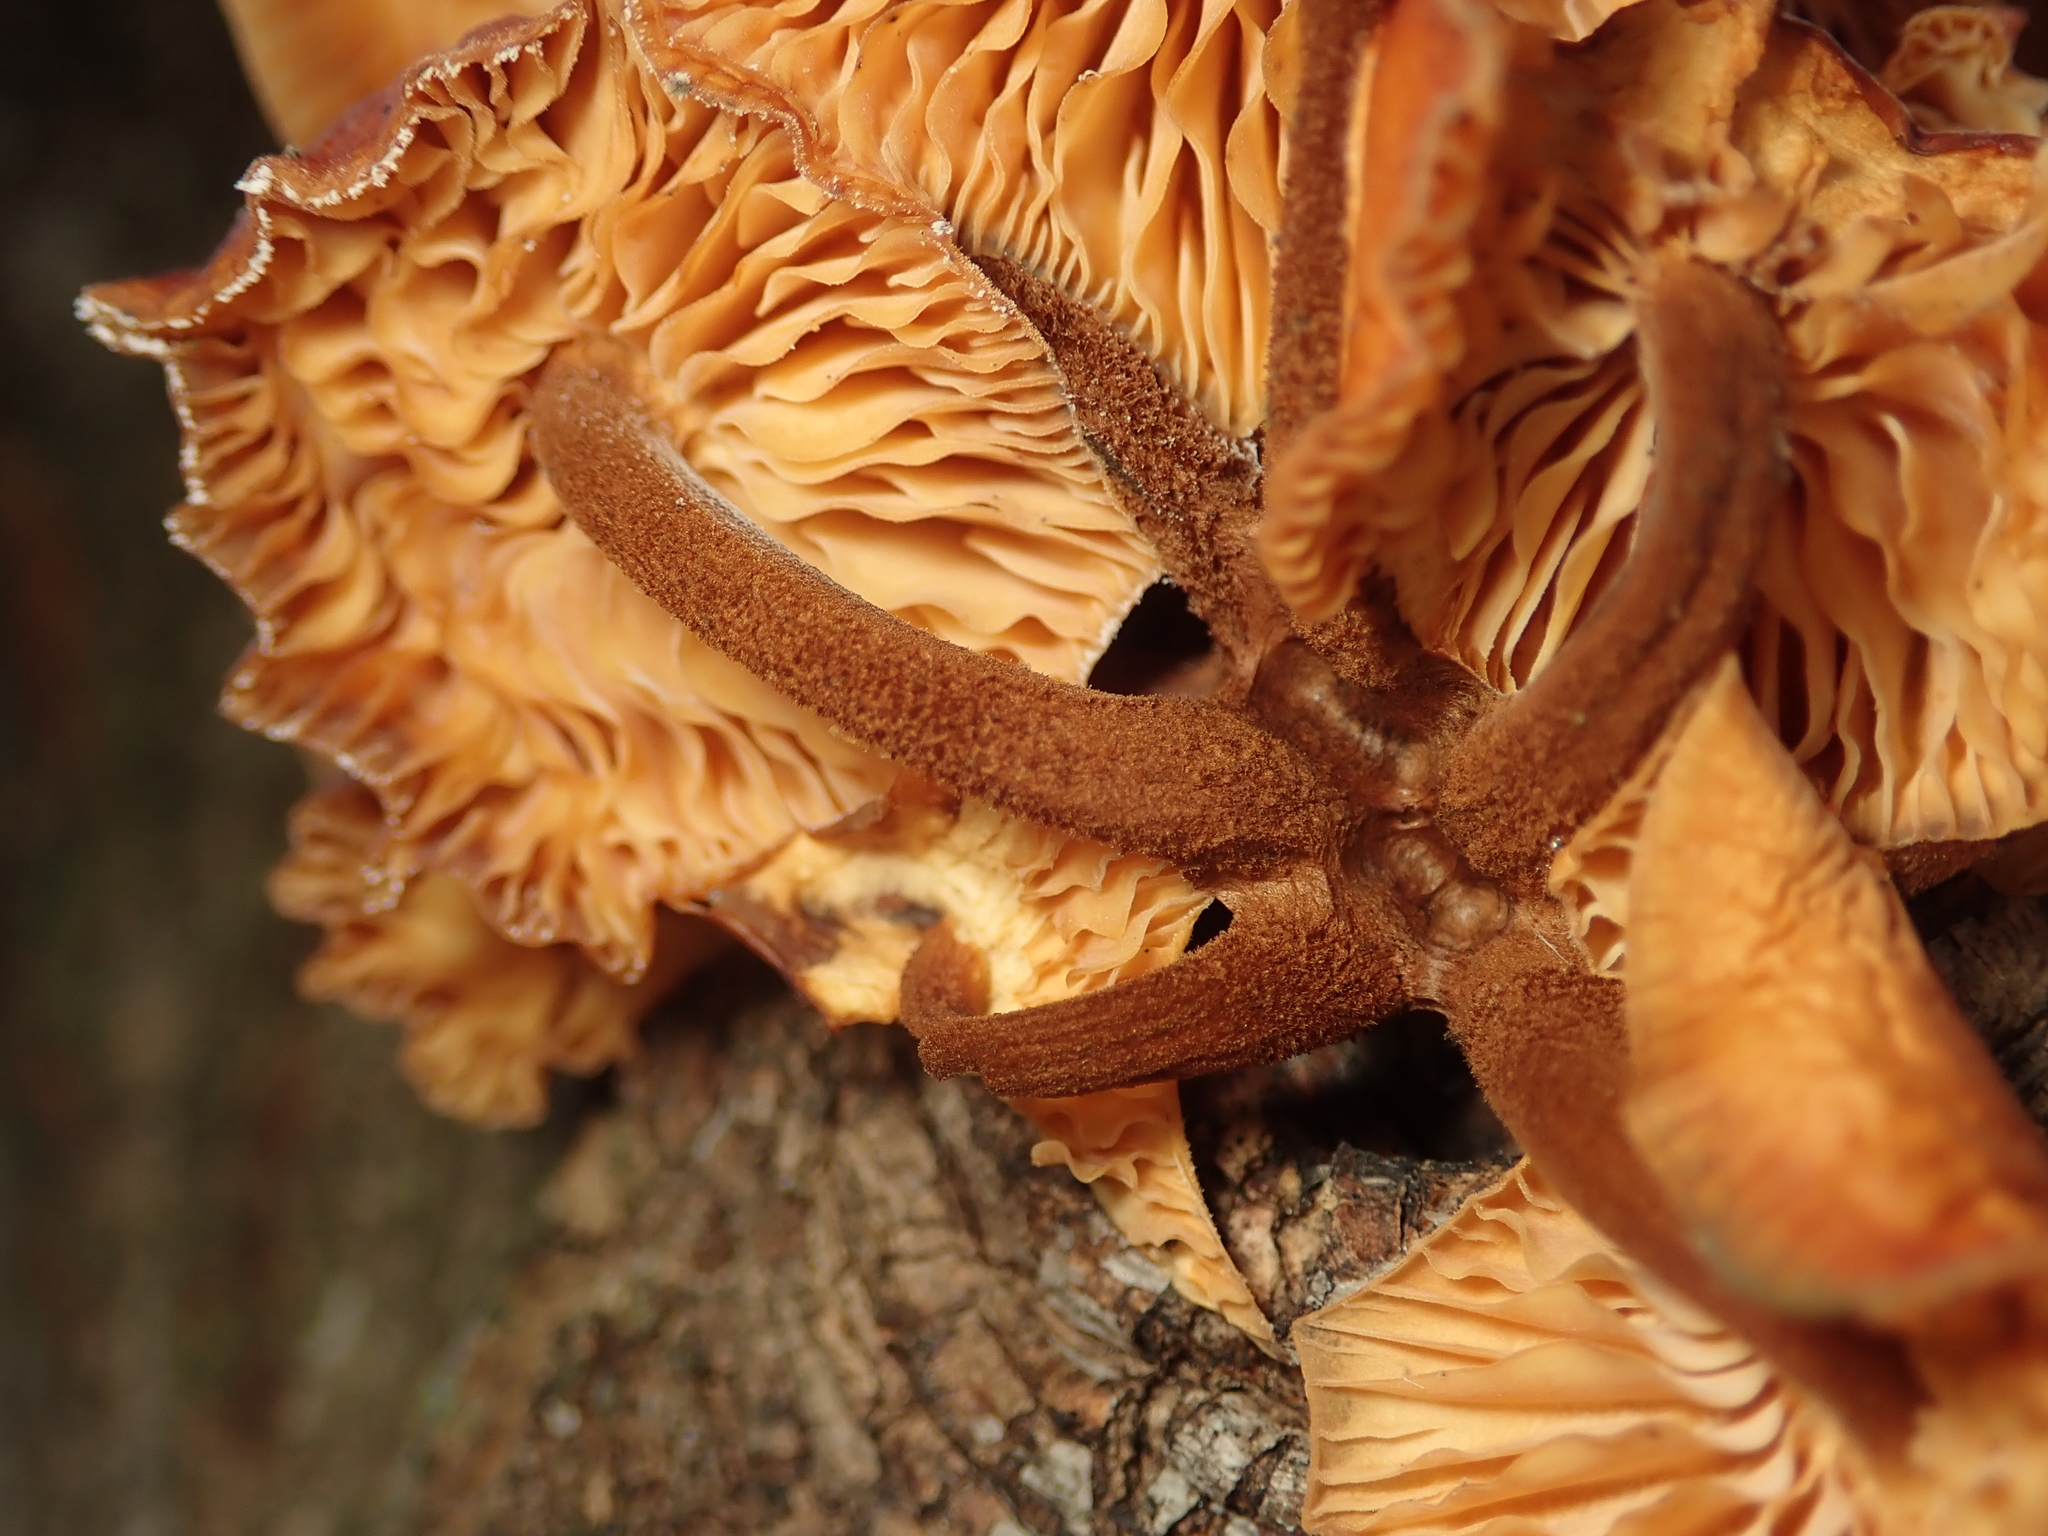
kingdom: Fungi
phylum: Basidiomycota
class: Agaricomycetes
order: Agaricales
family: Physalacriaceae
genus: Flammulina
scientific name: Flammulina
